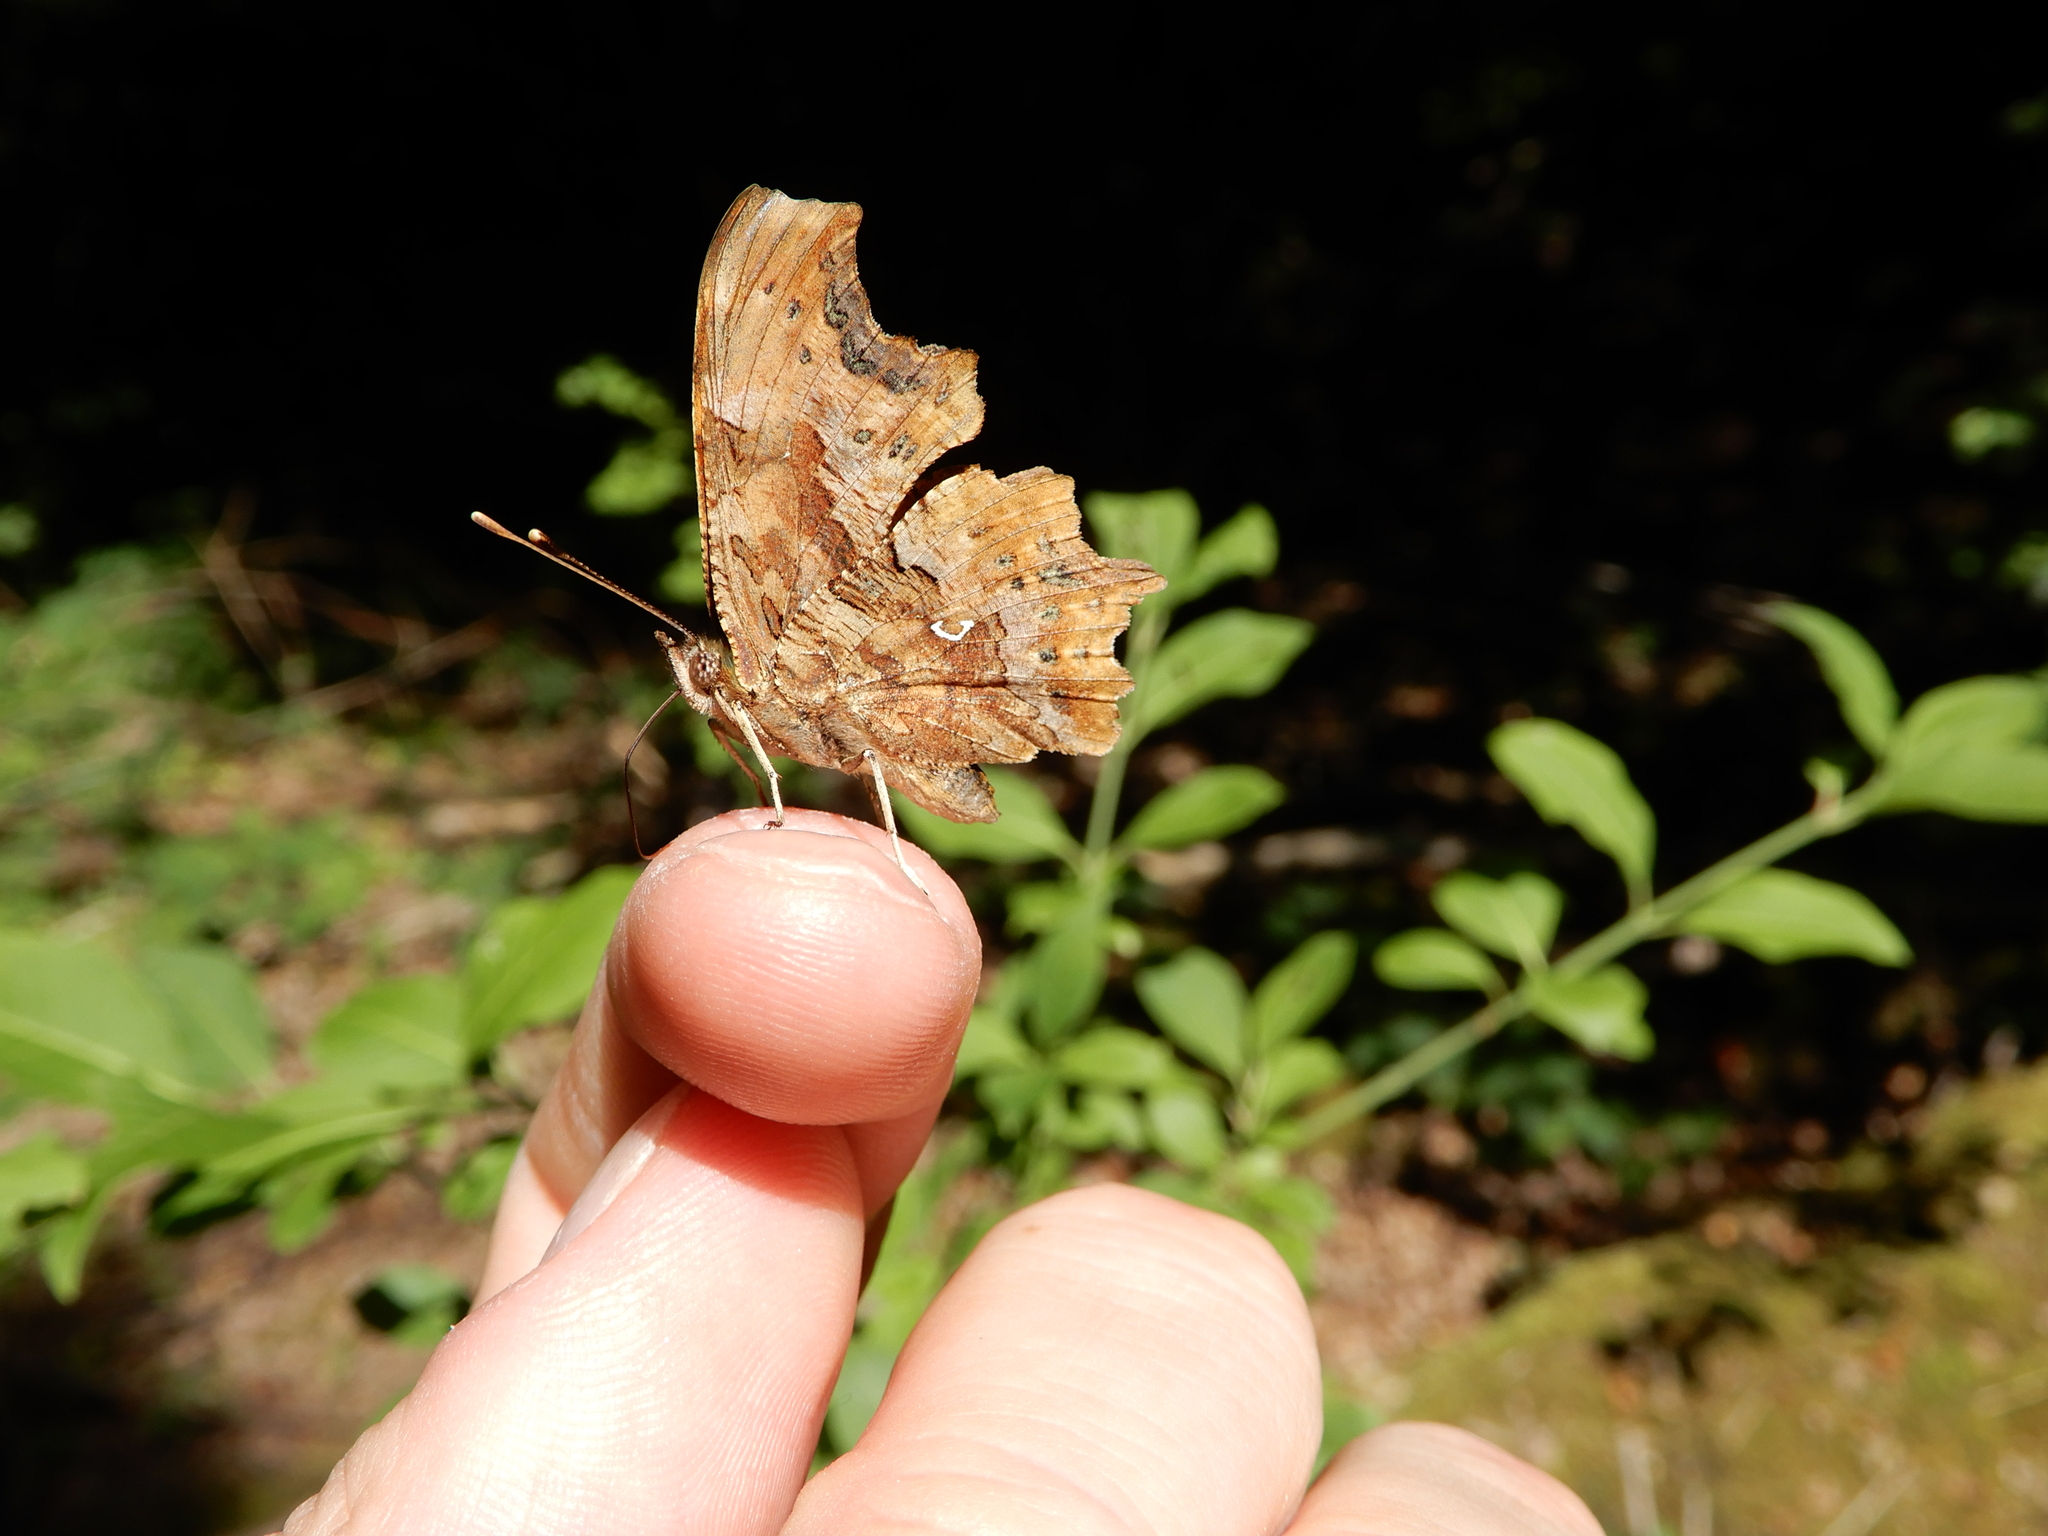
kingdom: Animalia
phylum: Arthropoda
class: Insecta
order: Lepidoptera
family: Nymphalidae
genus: Polygonia
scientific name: Polygonia c-album
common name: Comma
